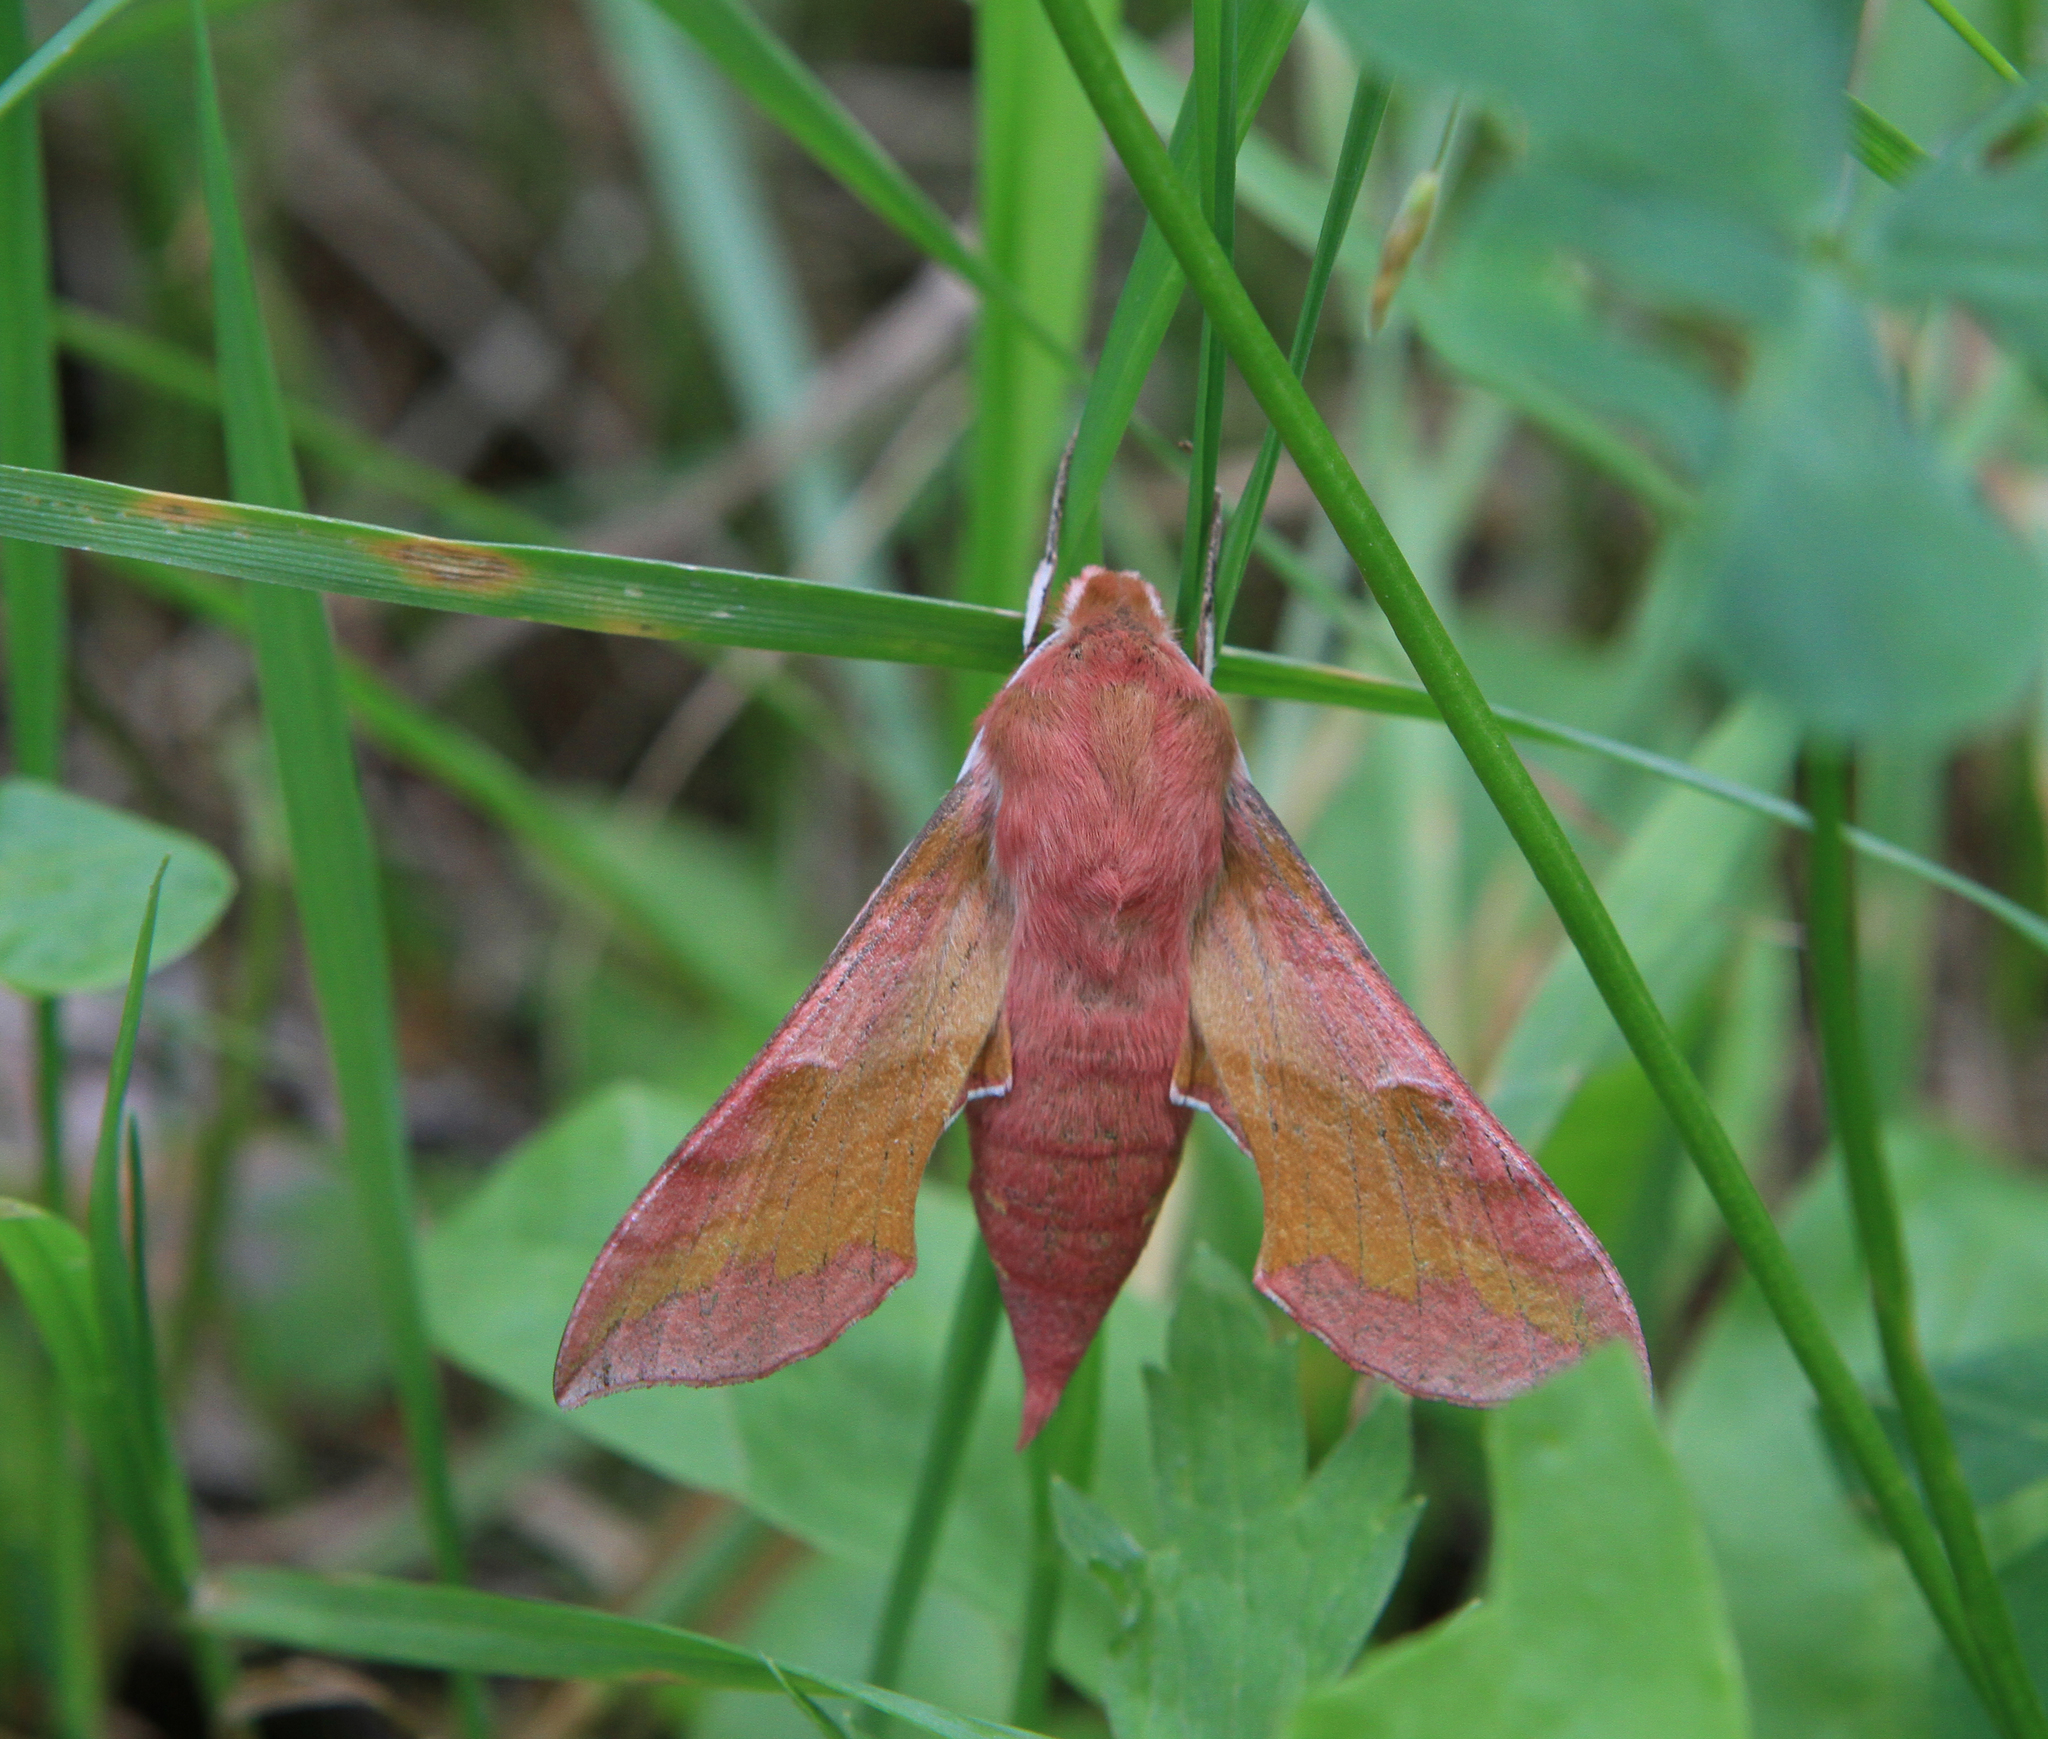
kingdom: Animalia
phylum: Arthropoda
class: Insecta
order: Lepidoptera
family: Sphingidae
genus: Deilephila
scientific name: Deilephila porcellus
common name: Small elephant hawk-moth
